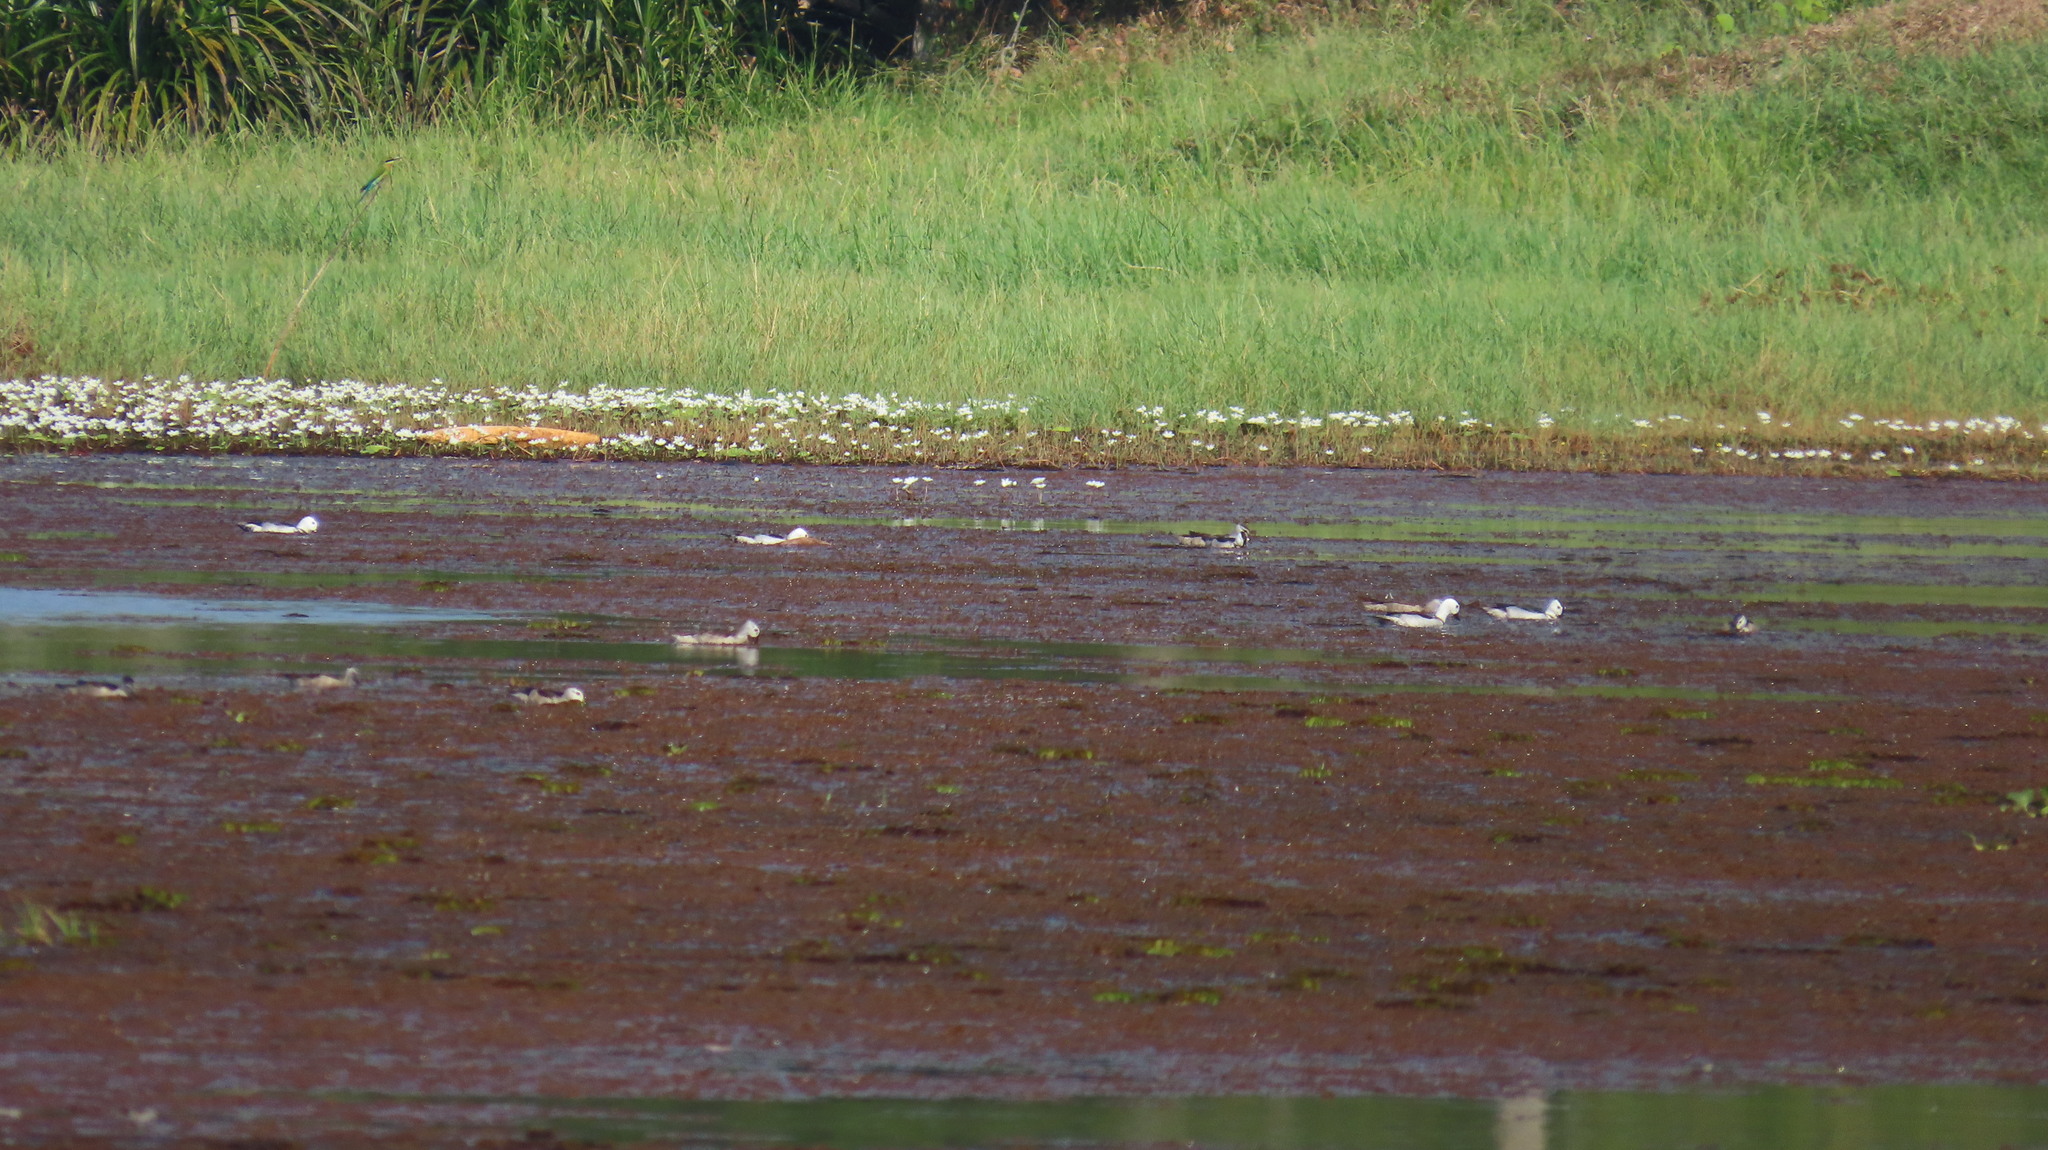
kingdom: Animalia
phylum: Chordata
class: Aves
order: Anseriformes
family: Anatidae
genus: Nettapus
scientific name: Nettapus coromandelianus
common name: Cotton pygmy-goose
